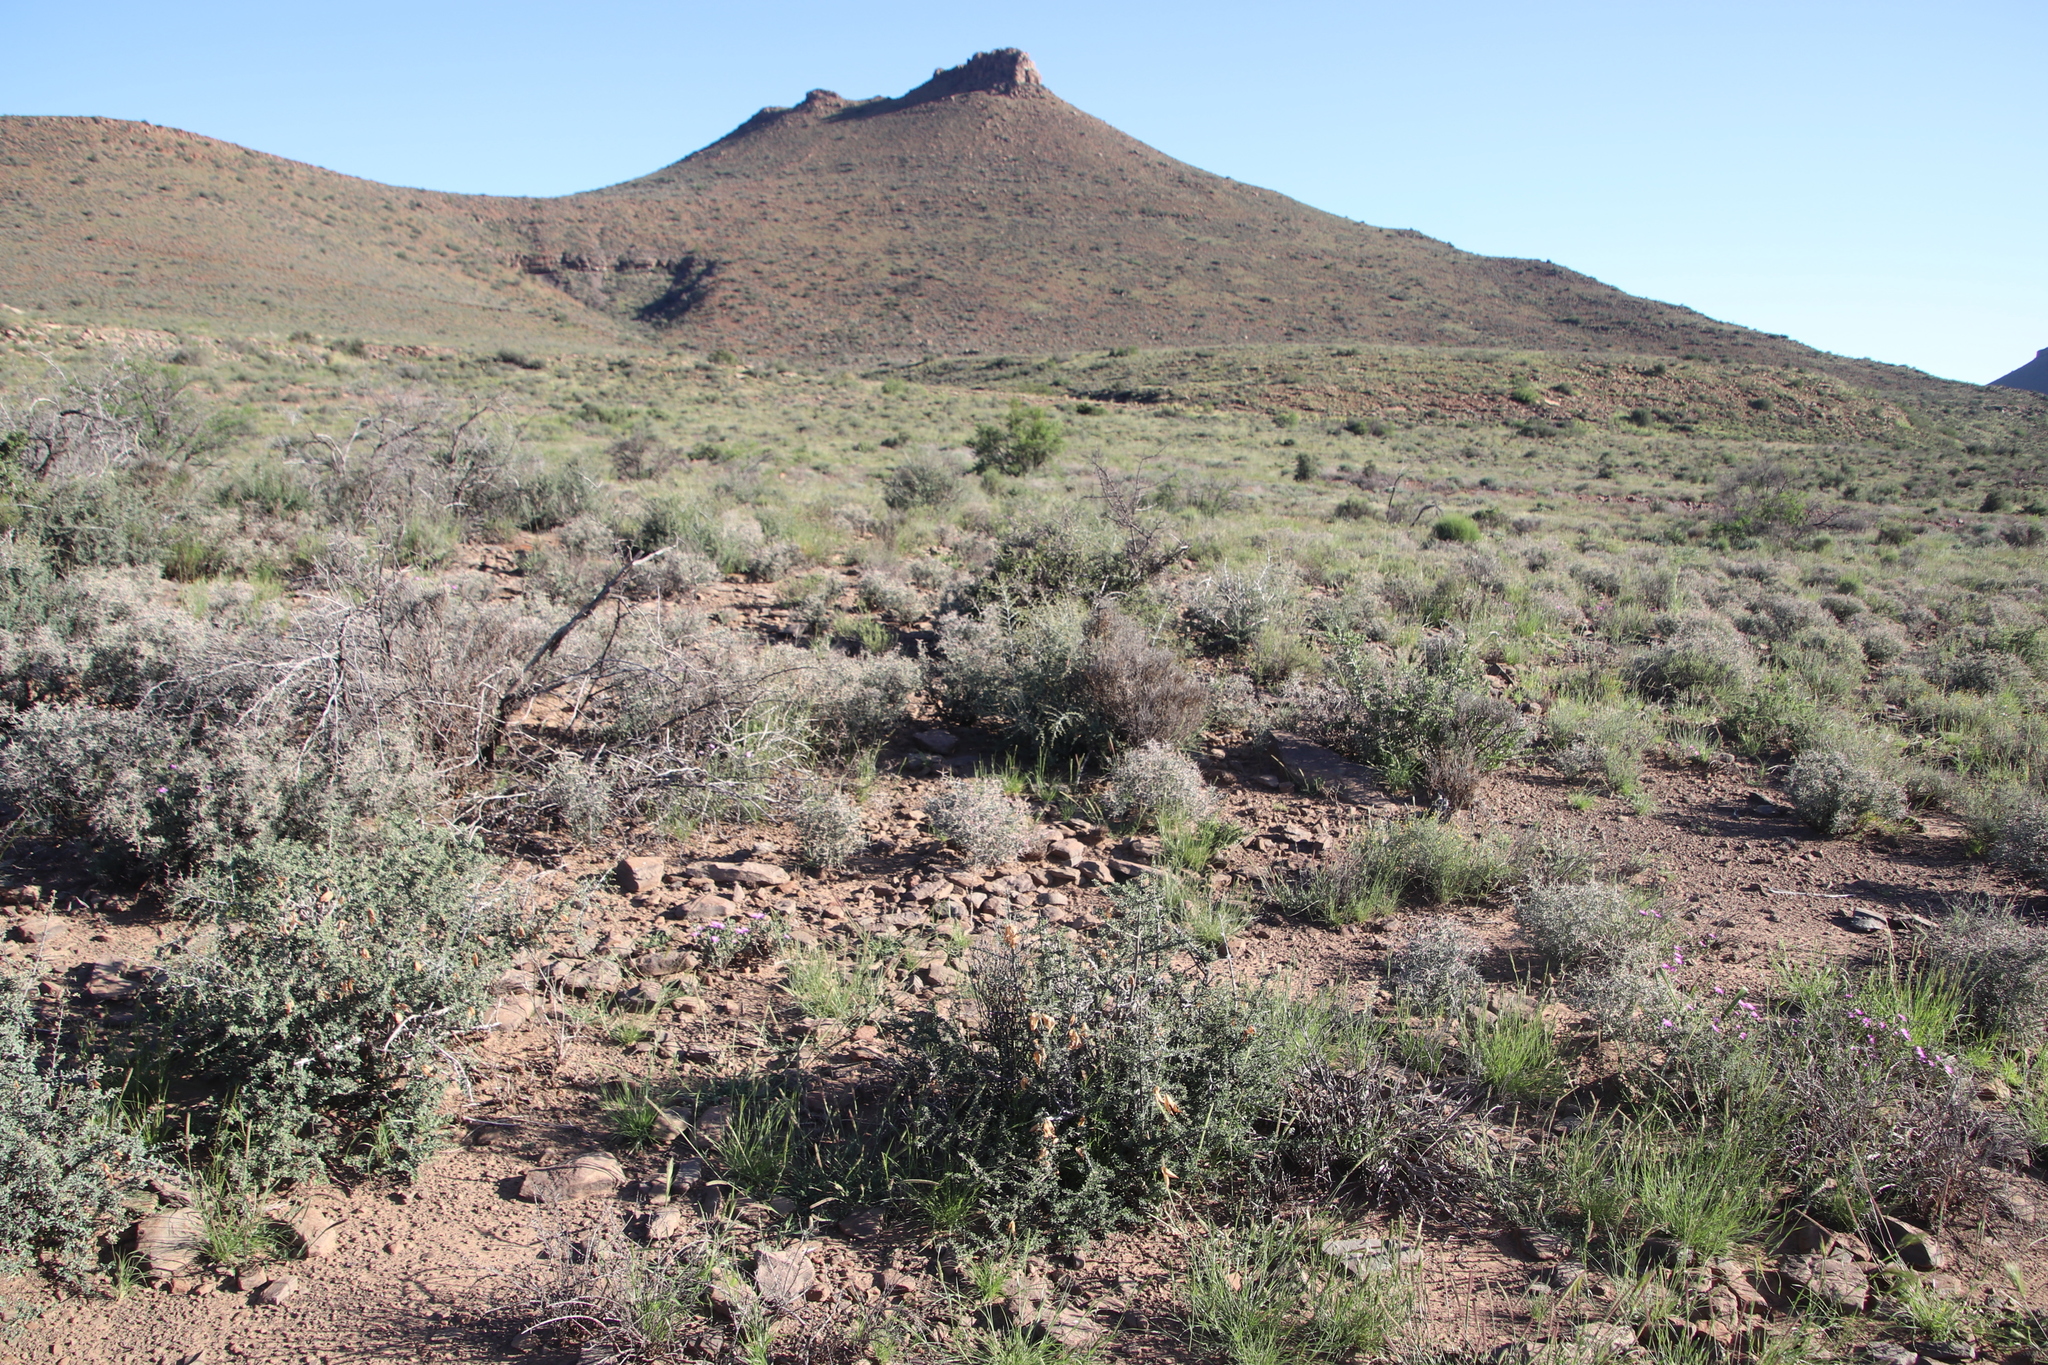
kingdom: Plantae
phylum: Tracheophyta
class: Magnoliopsida
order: Lamiales
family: Bignoniaceae
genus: Rhigozum
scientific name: Rhigozum obovatum
